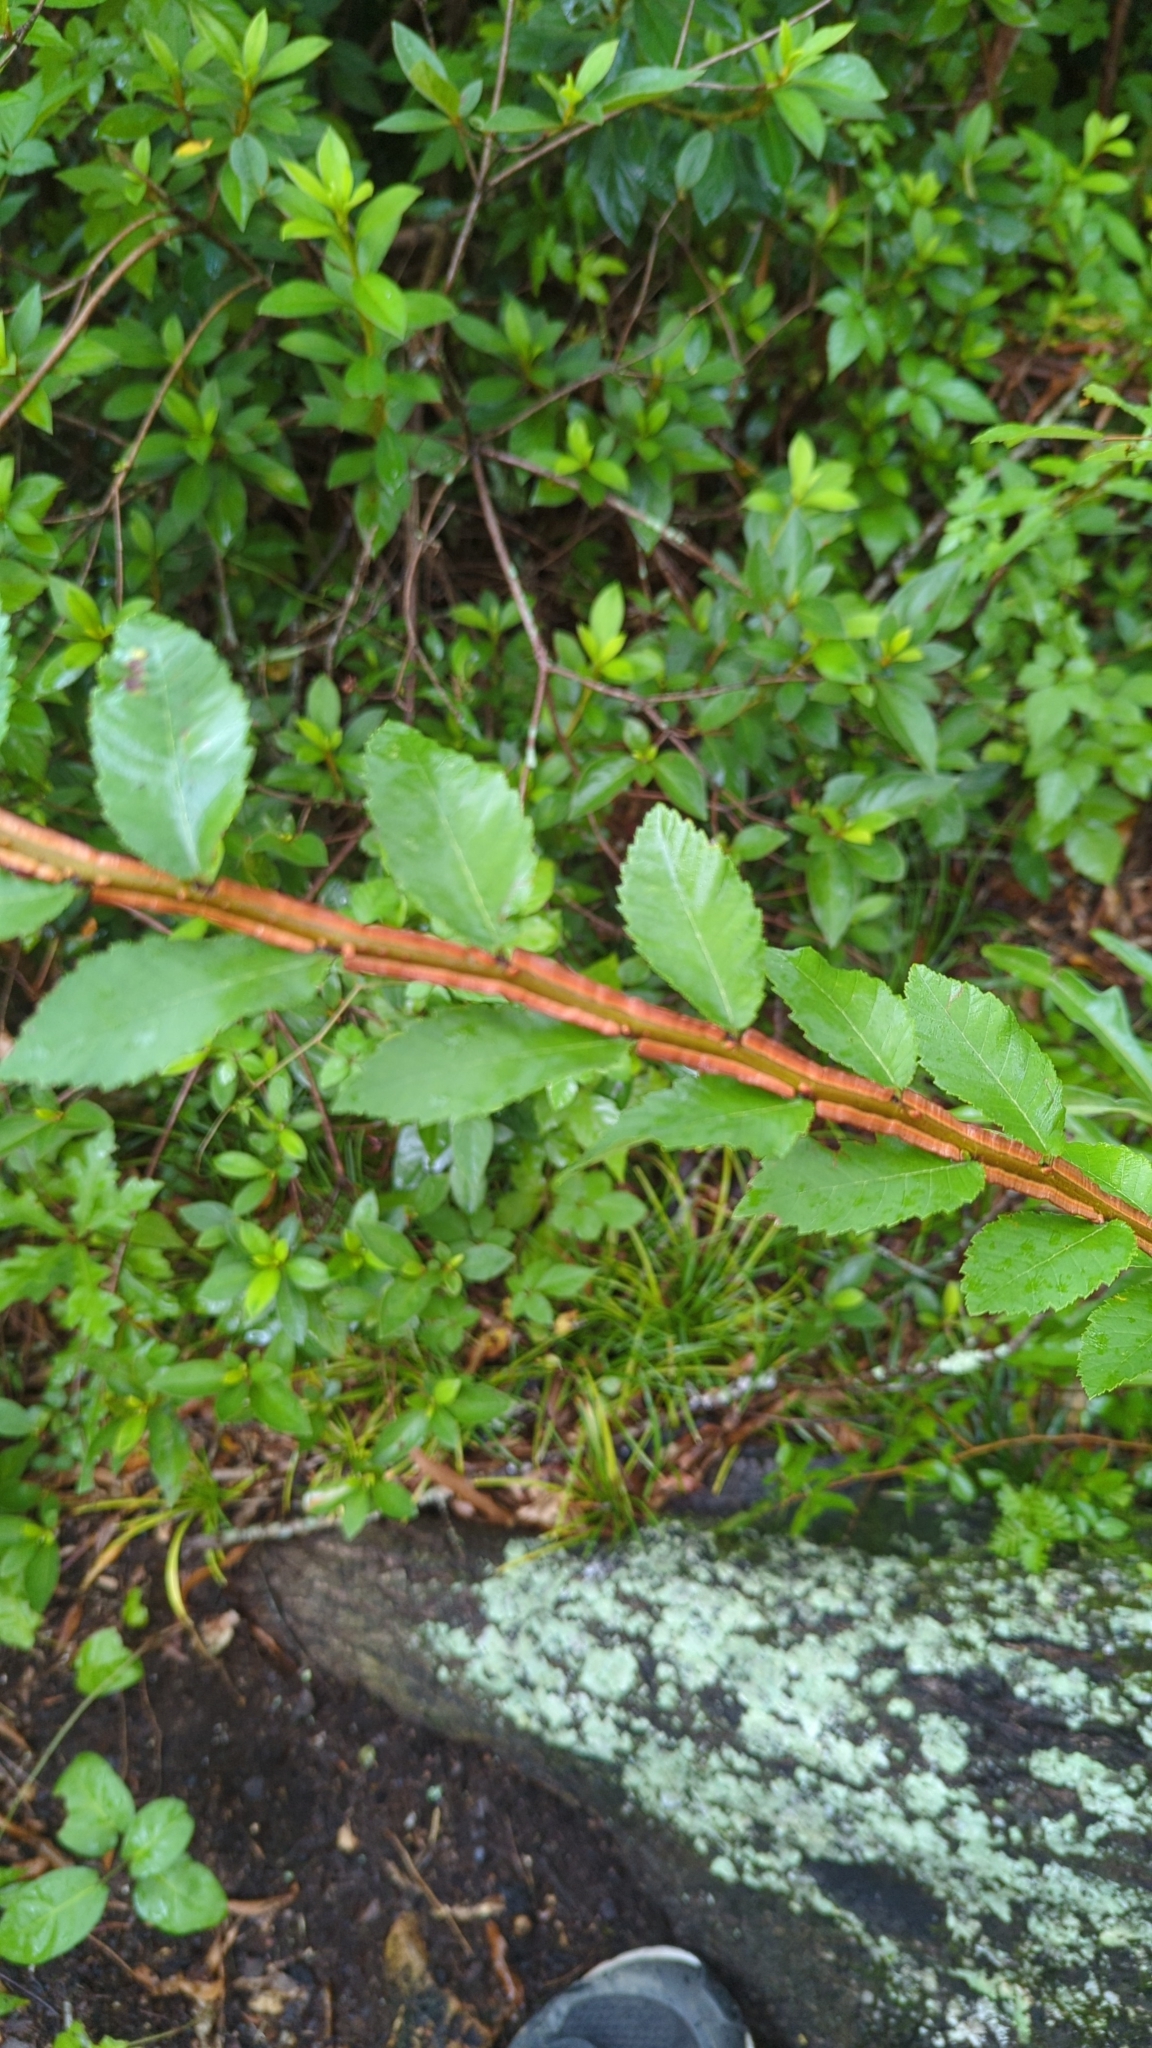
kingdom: Plantae
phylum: Tracheophyta
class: Magnoliopsida
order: Rosales
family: Ulmaceae
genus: Ulmus
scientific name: Ulmus alata
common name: Winged elm
